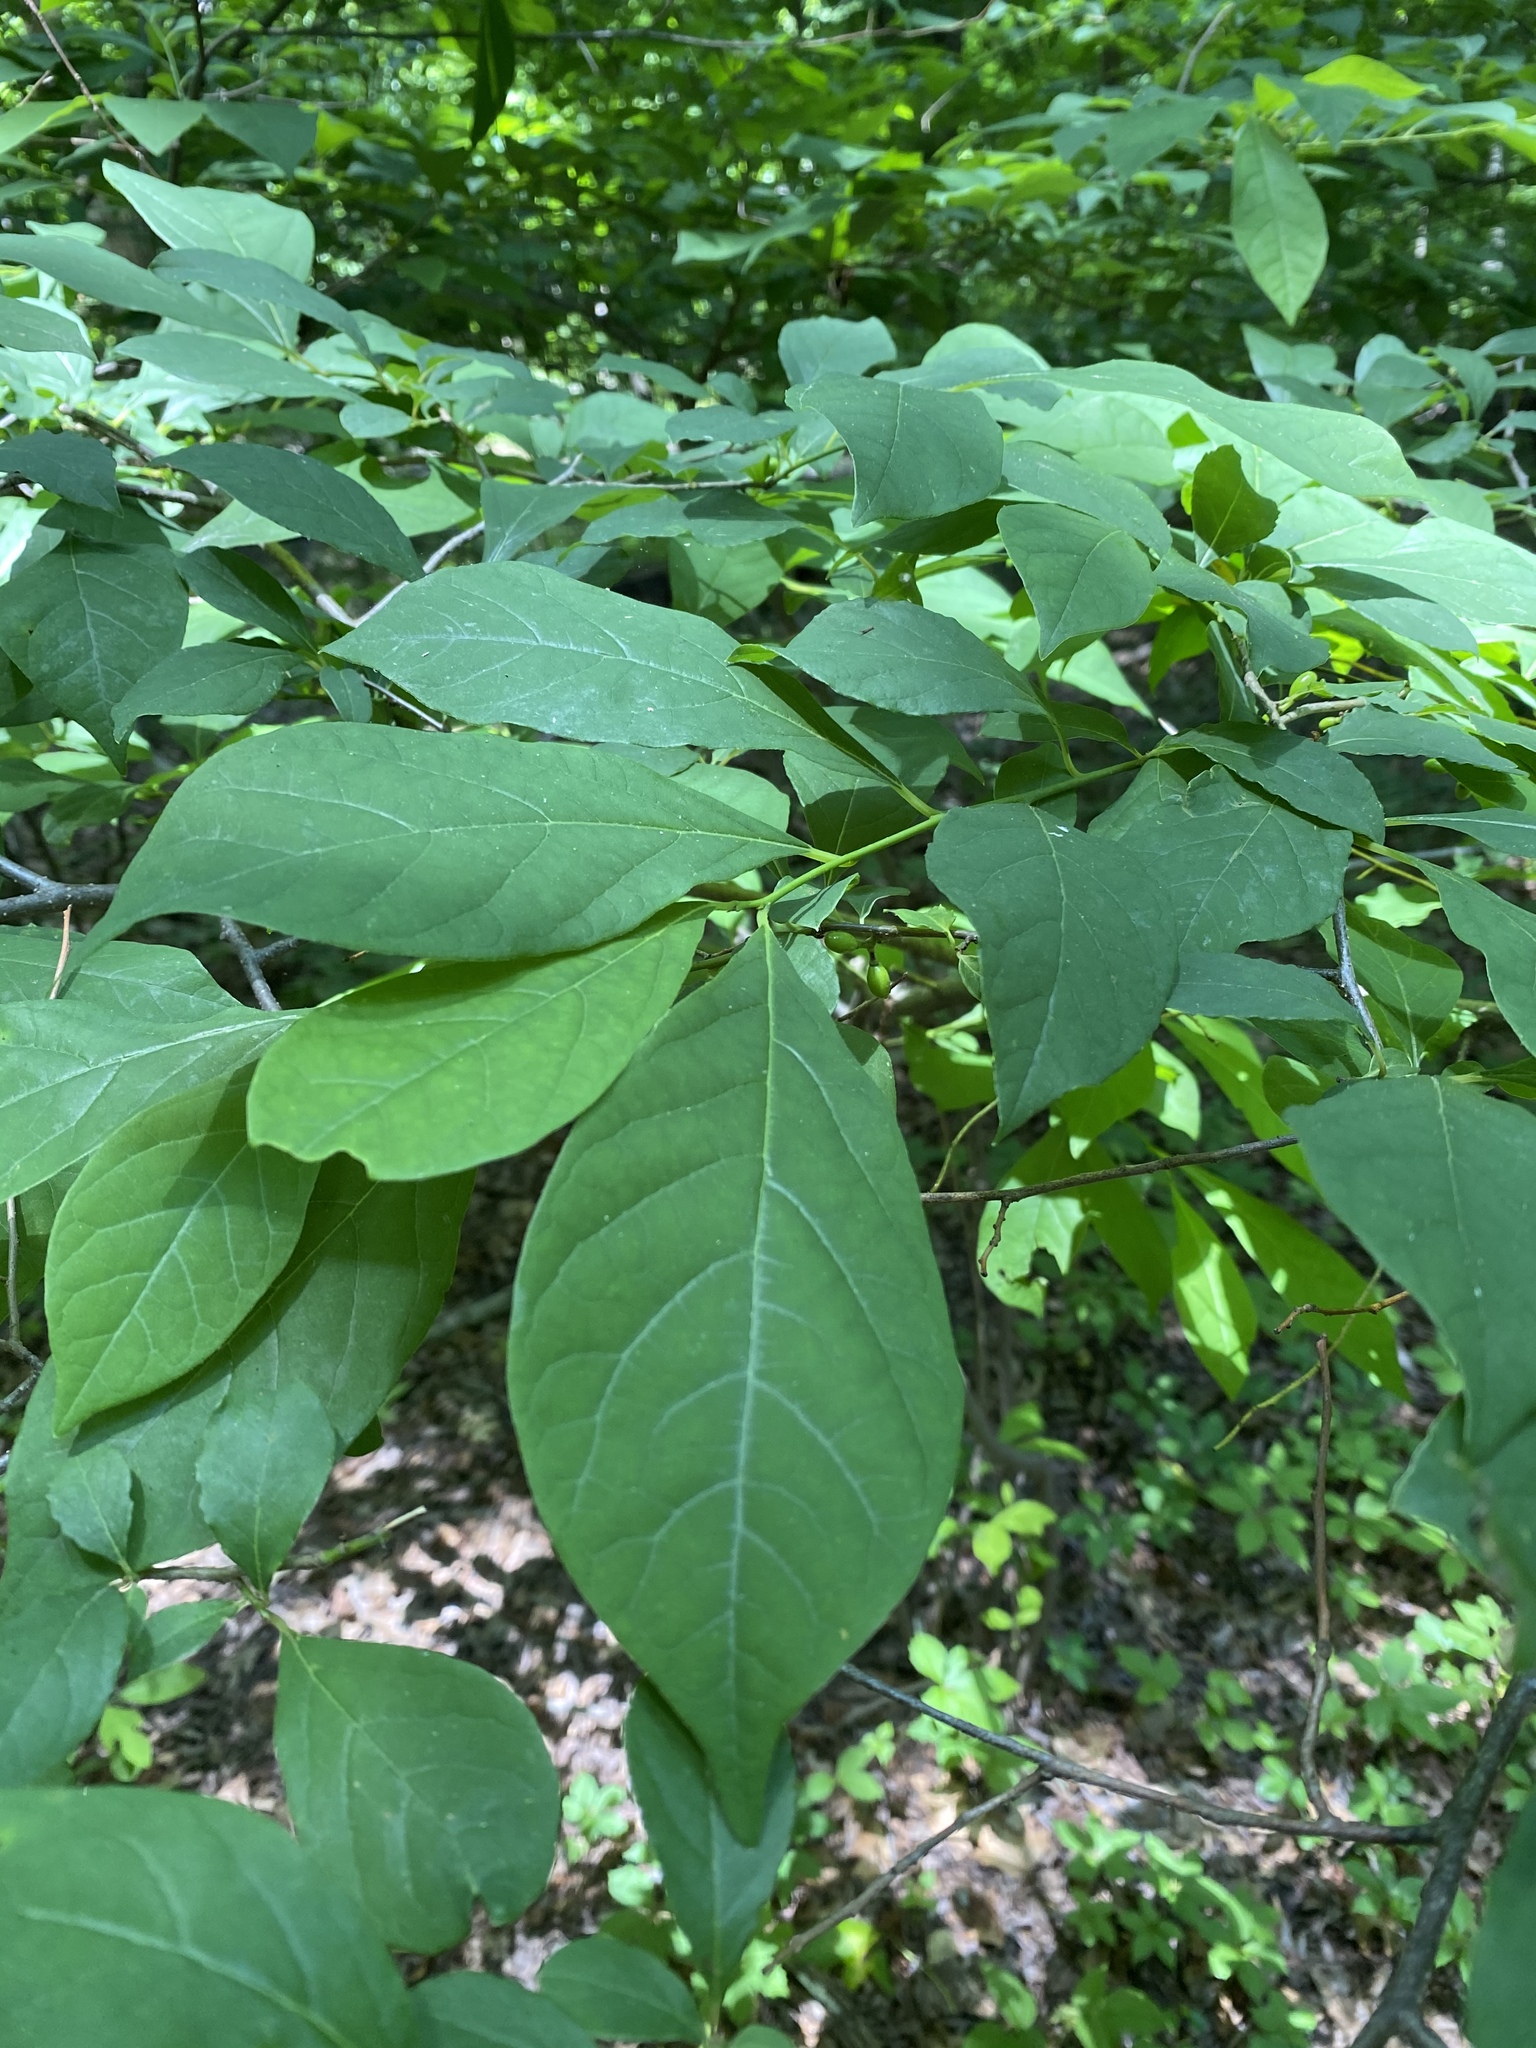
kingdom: Plantae
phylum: Tracheophyta
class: Magnoliopsida
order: Laurales
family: Lauraceae
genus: Lindera
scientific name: Lindera benzoin
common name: Spicebush
